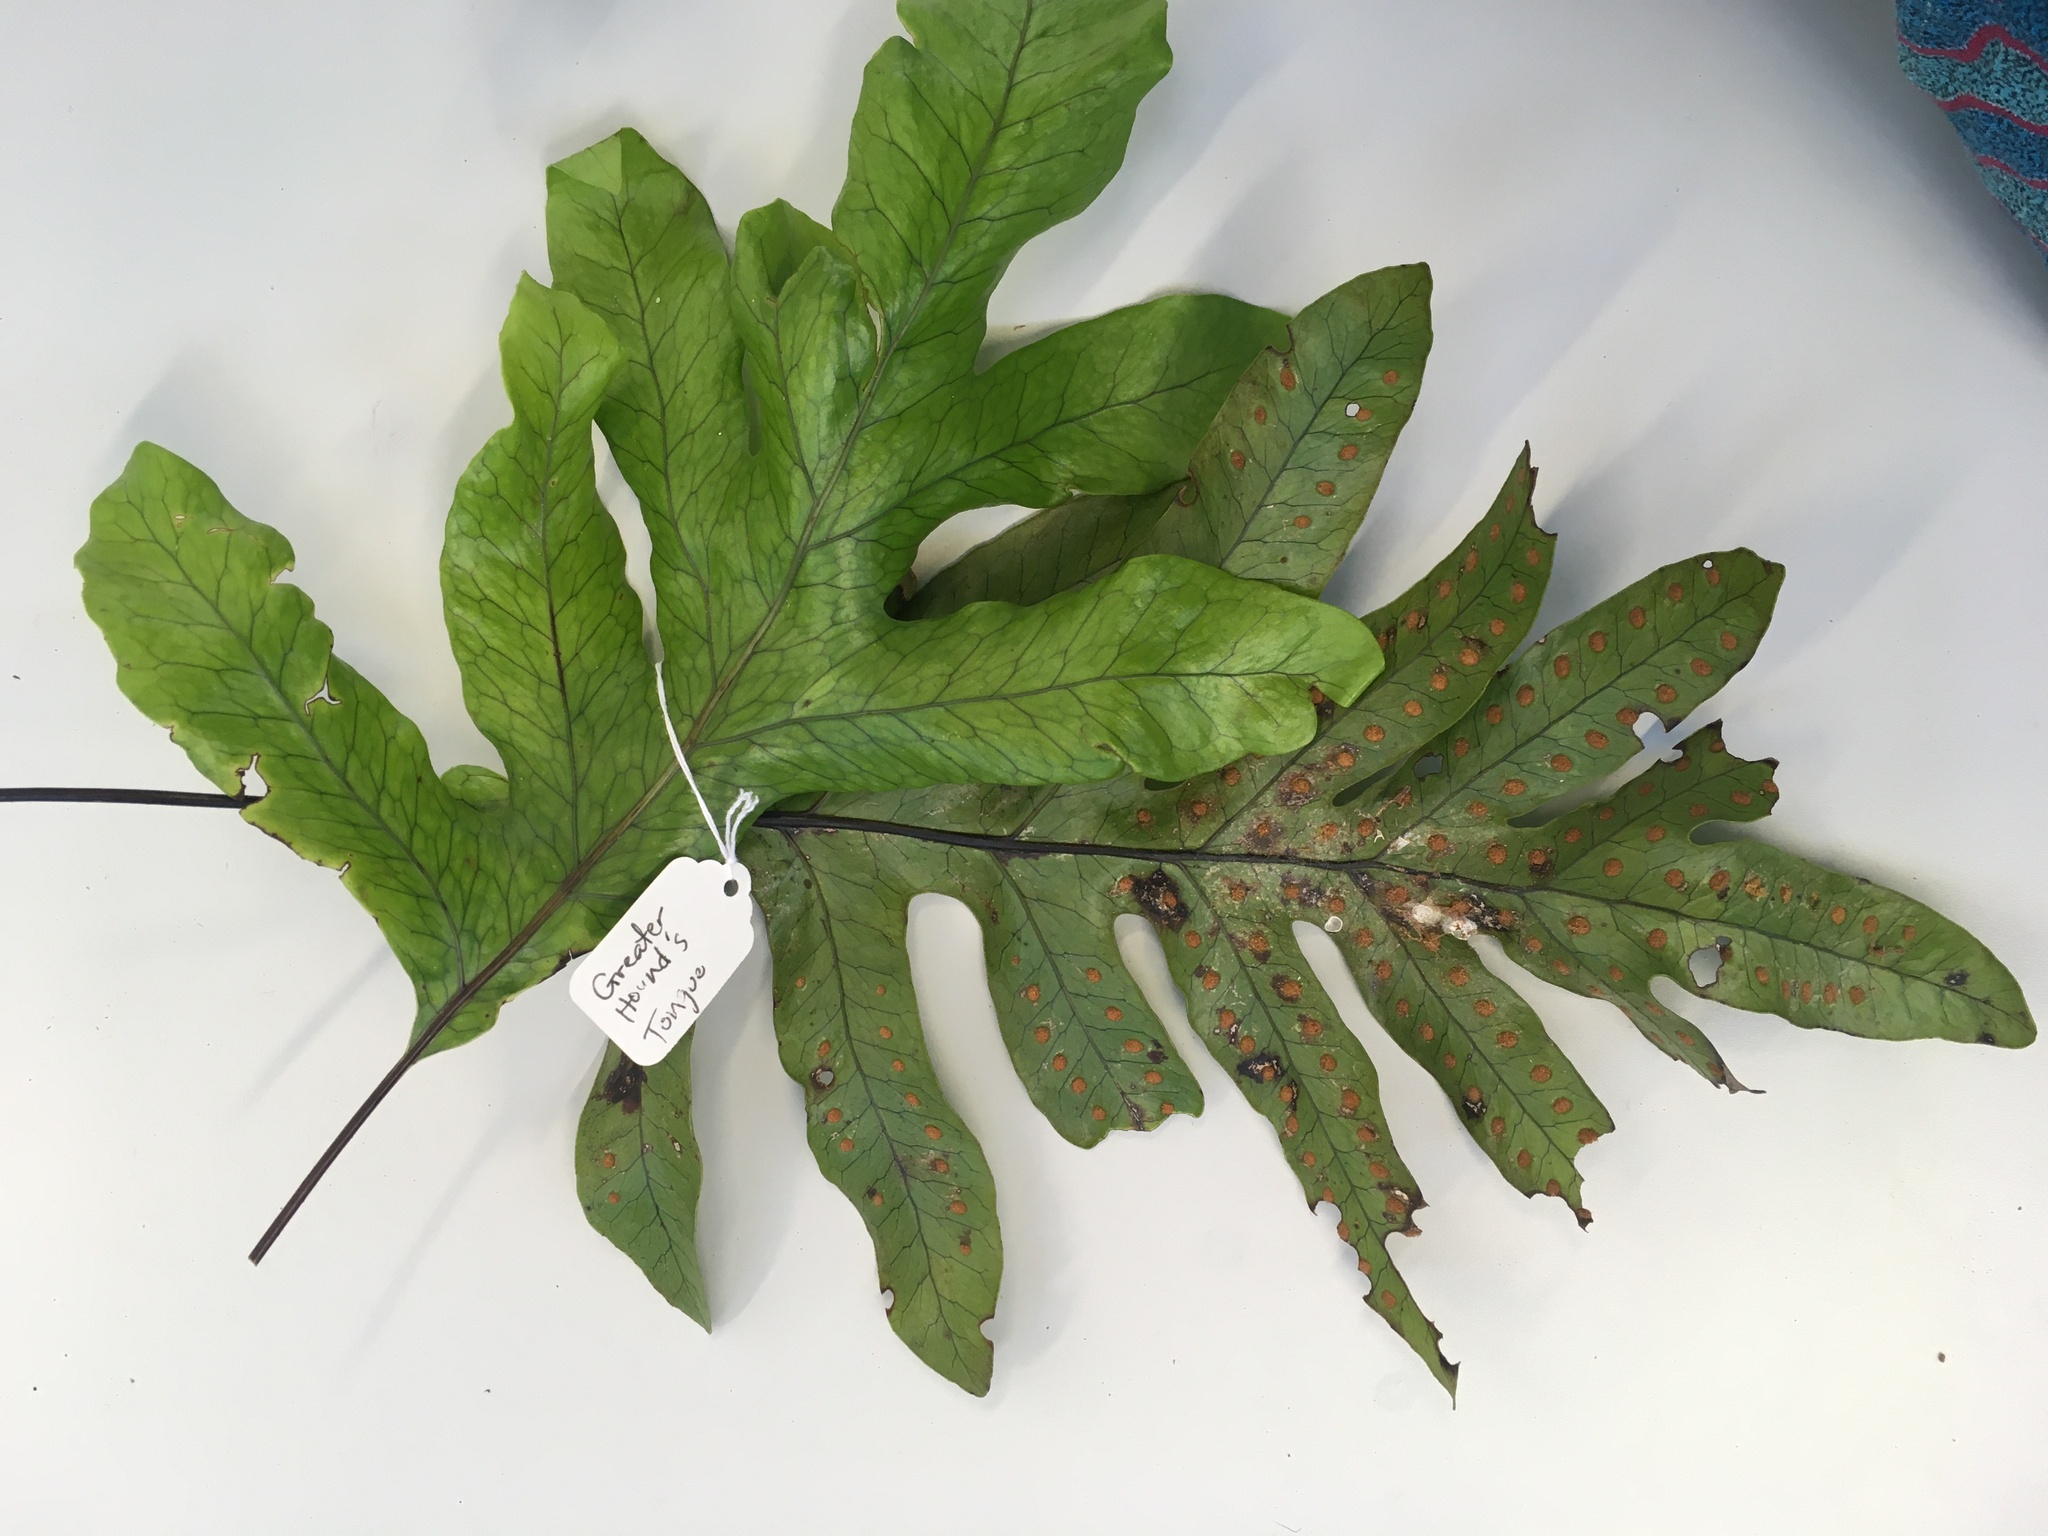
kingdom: Plantae
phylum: Tracheophyta
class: Polypodiopsida
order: Polypodiales
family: Polypodiaceae
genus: Lecanopteris
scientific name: Lecanopteris pustulata
